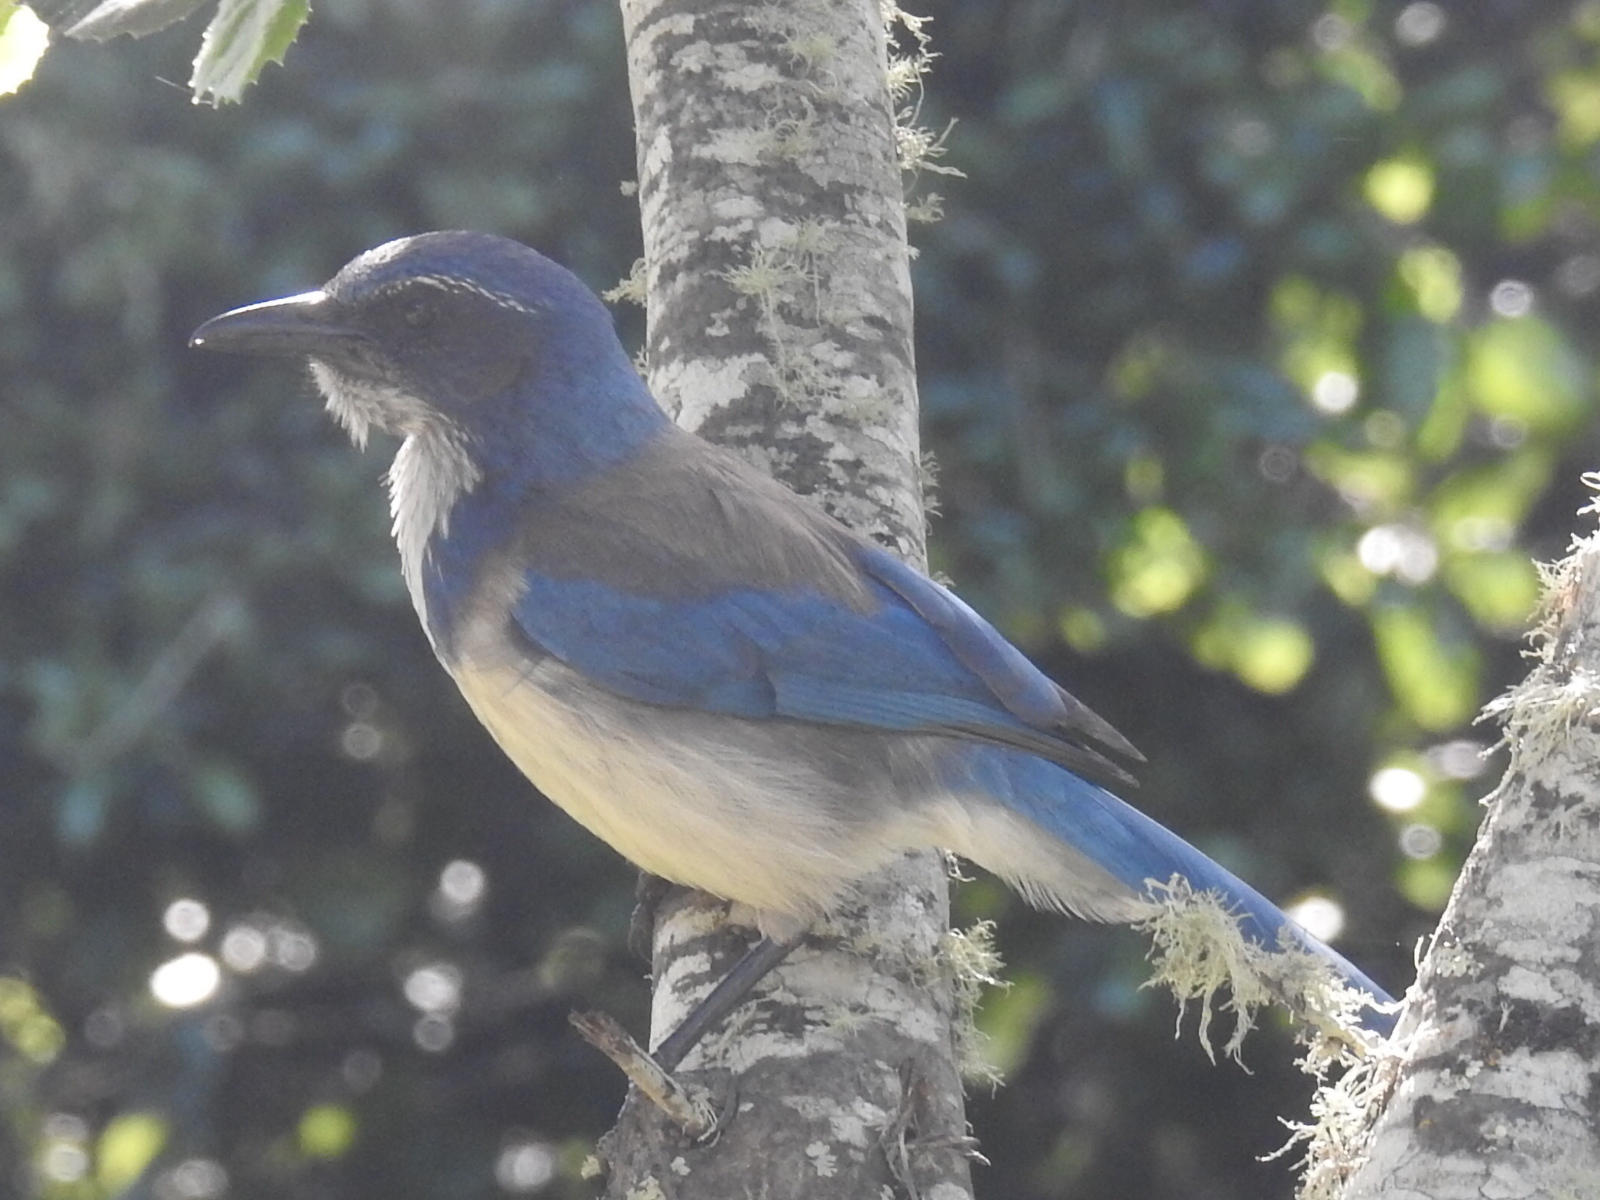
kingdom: Animalia
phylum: Chordata
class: Aves
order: Passeriformes
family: Corvidae
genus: Aphelocoma
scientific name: Aphelocoma californica
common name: California scrub-jay
